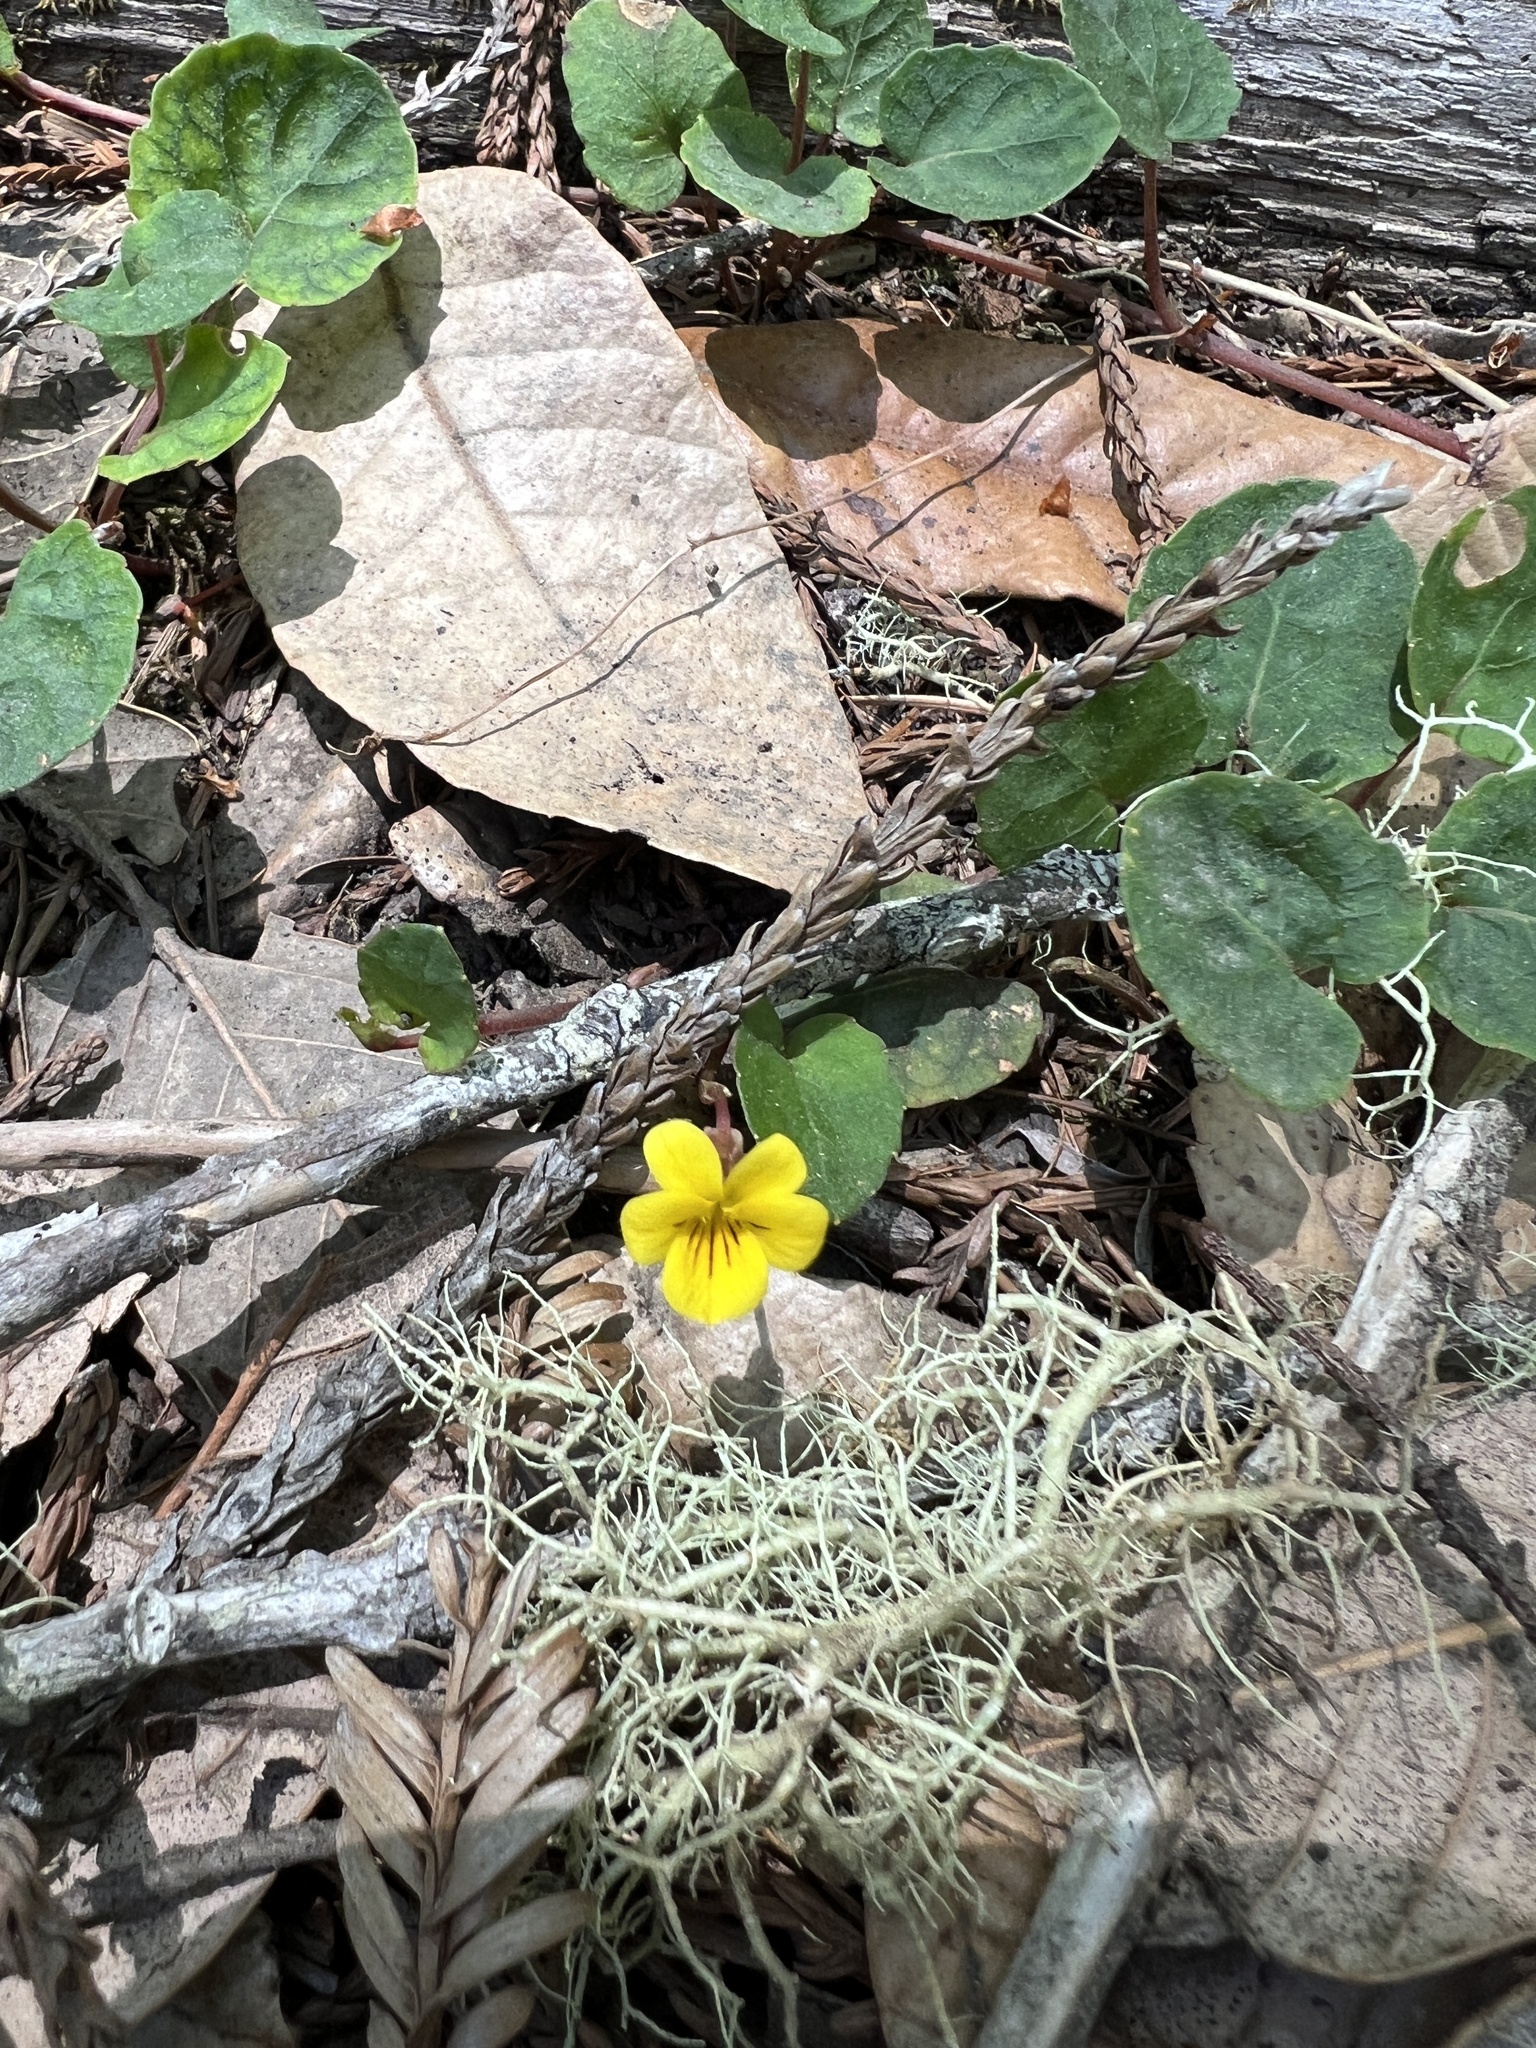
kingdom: Plantae
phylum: Tracheophyta
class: Magnoliopsida
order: Malpighiales
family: Violaceae
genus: Viola
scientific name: Viola sempervirens
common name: Evergreen violet
